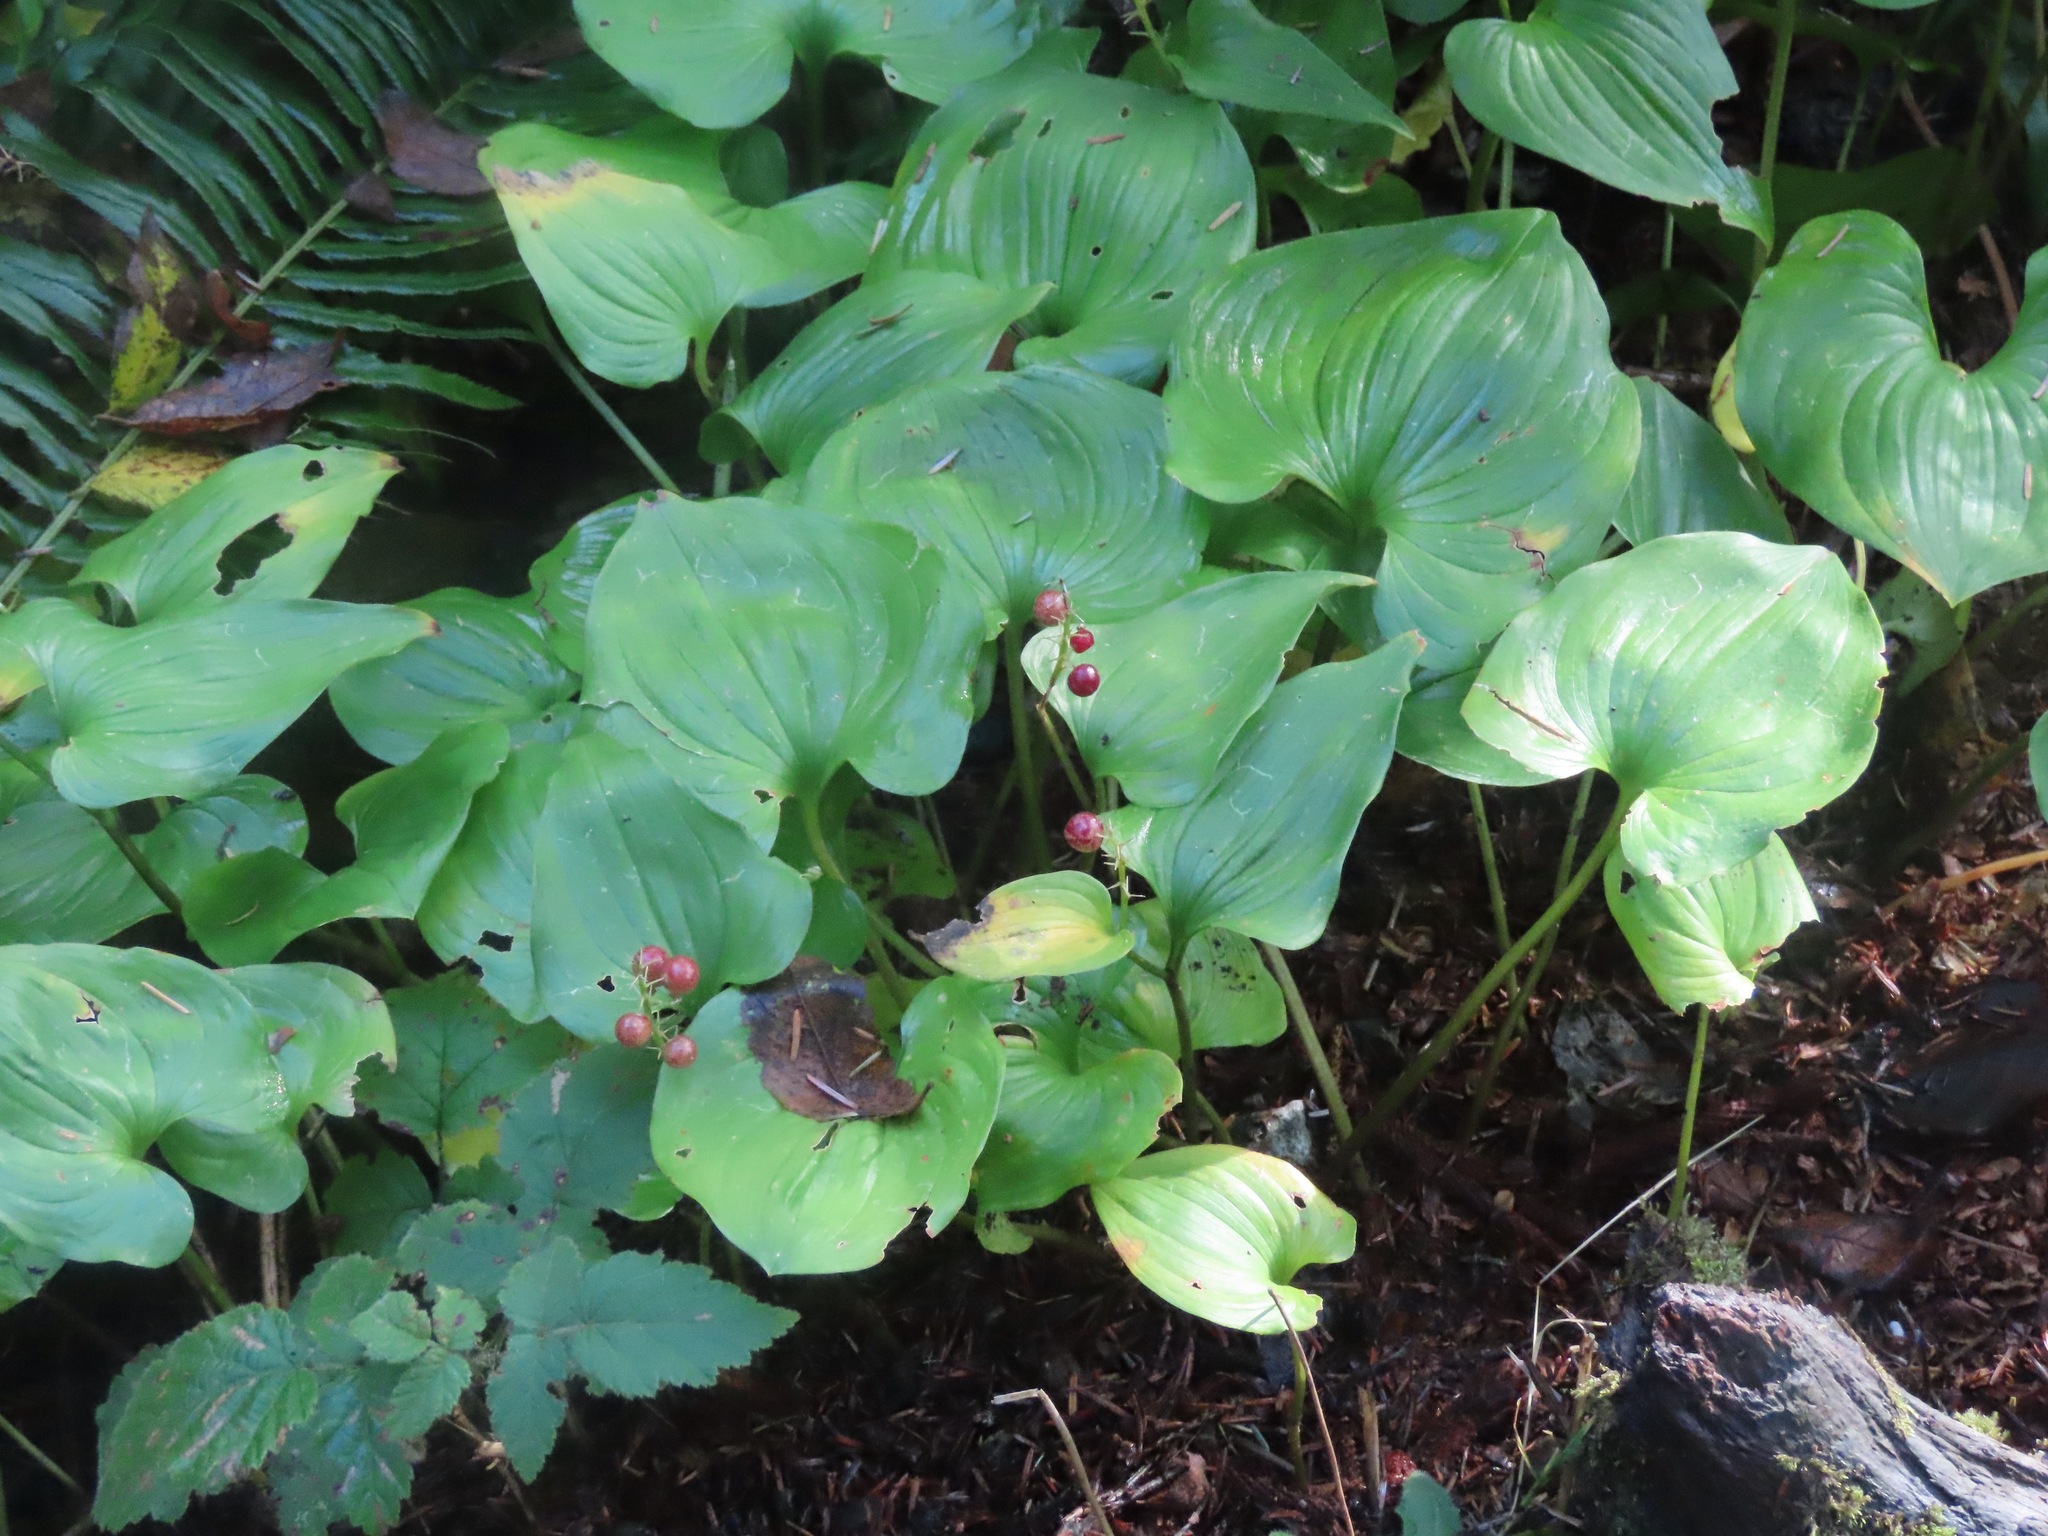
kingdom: Plantae
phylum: Tracheophyta
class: Liliopsida
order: Asparagales
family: Asparagaceae
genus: Maianthemum
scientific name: Maianthemum dilatatum
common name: False lily-of-the-valley
